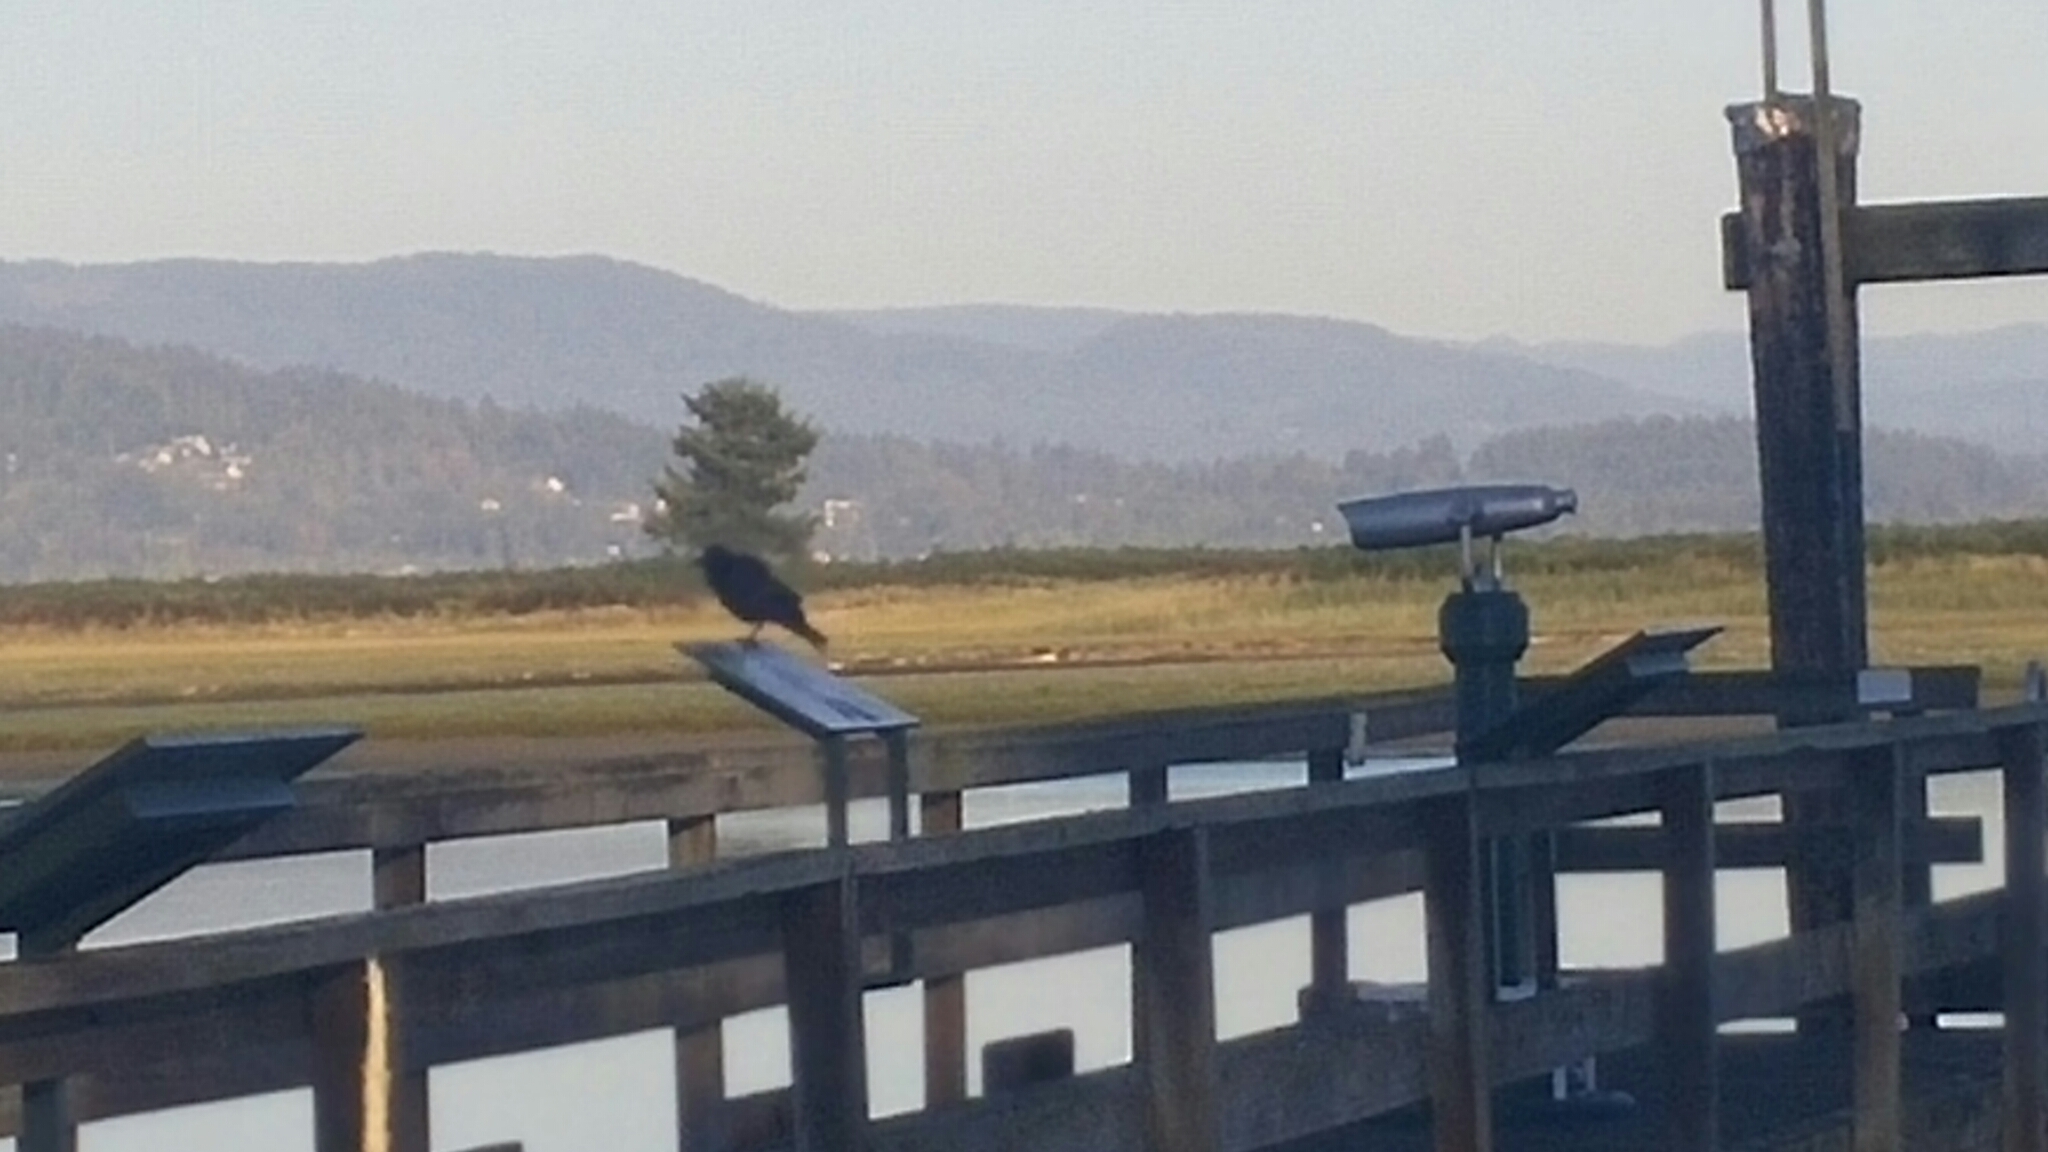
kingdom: Animalia
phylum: Chordata
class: Aves
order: Passeriformes
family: Corvidae
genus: Corvus
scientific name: Corvus brachyrhynchos
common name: American crow
